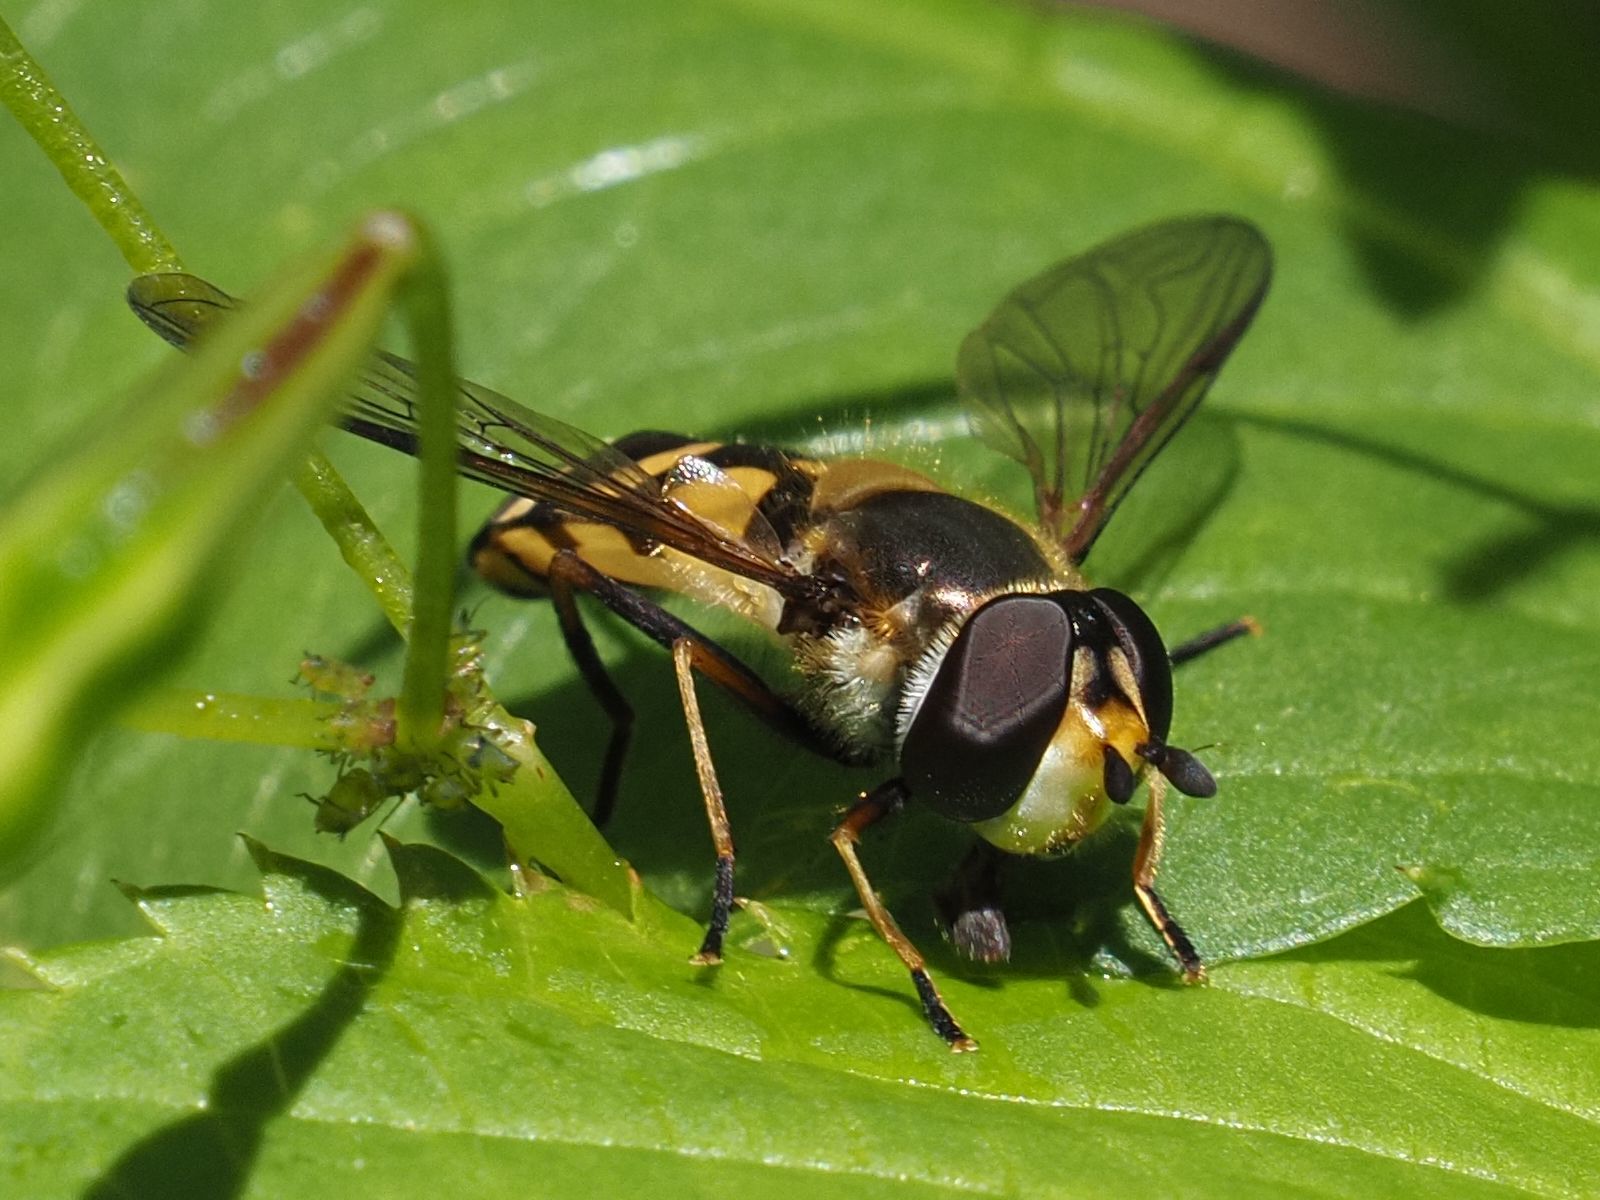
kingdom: Animalia
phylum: Arthropoda
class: Insecta
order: Diptera
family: Syrphidae
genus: Didea
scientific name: Didea fasciata
